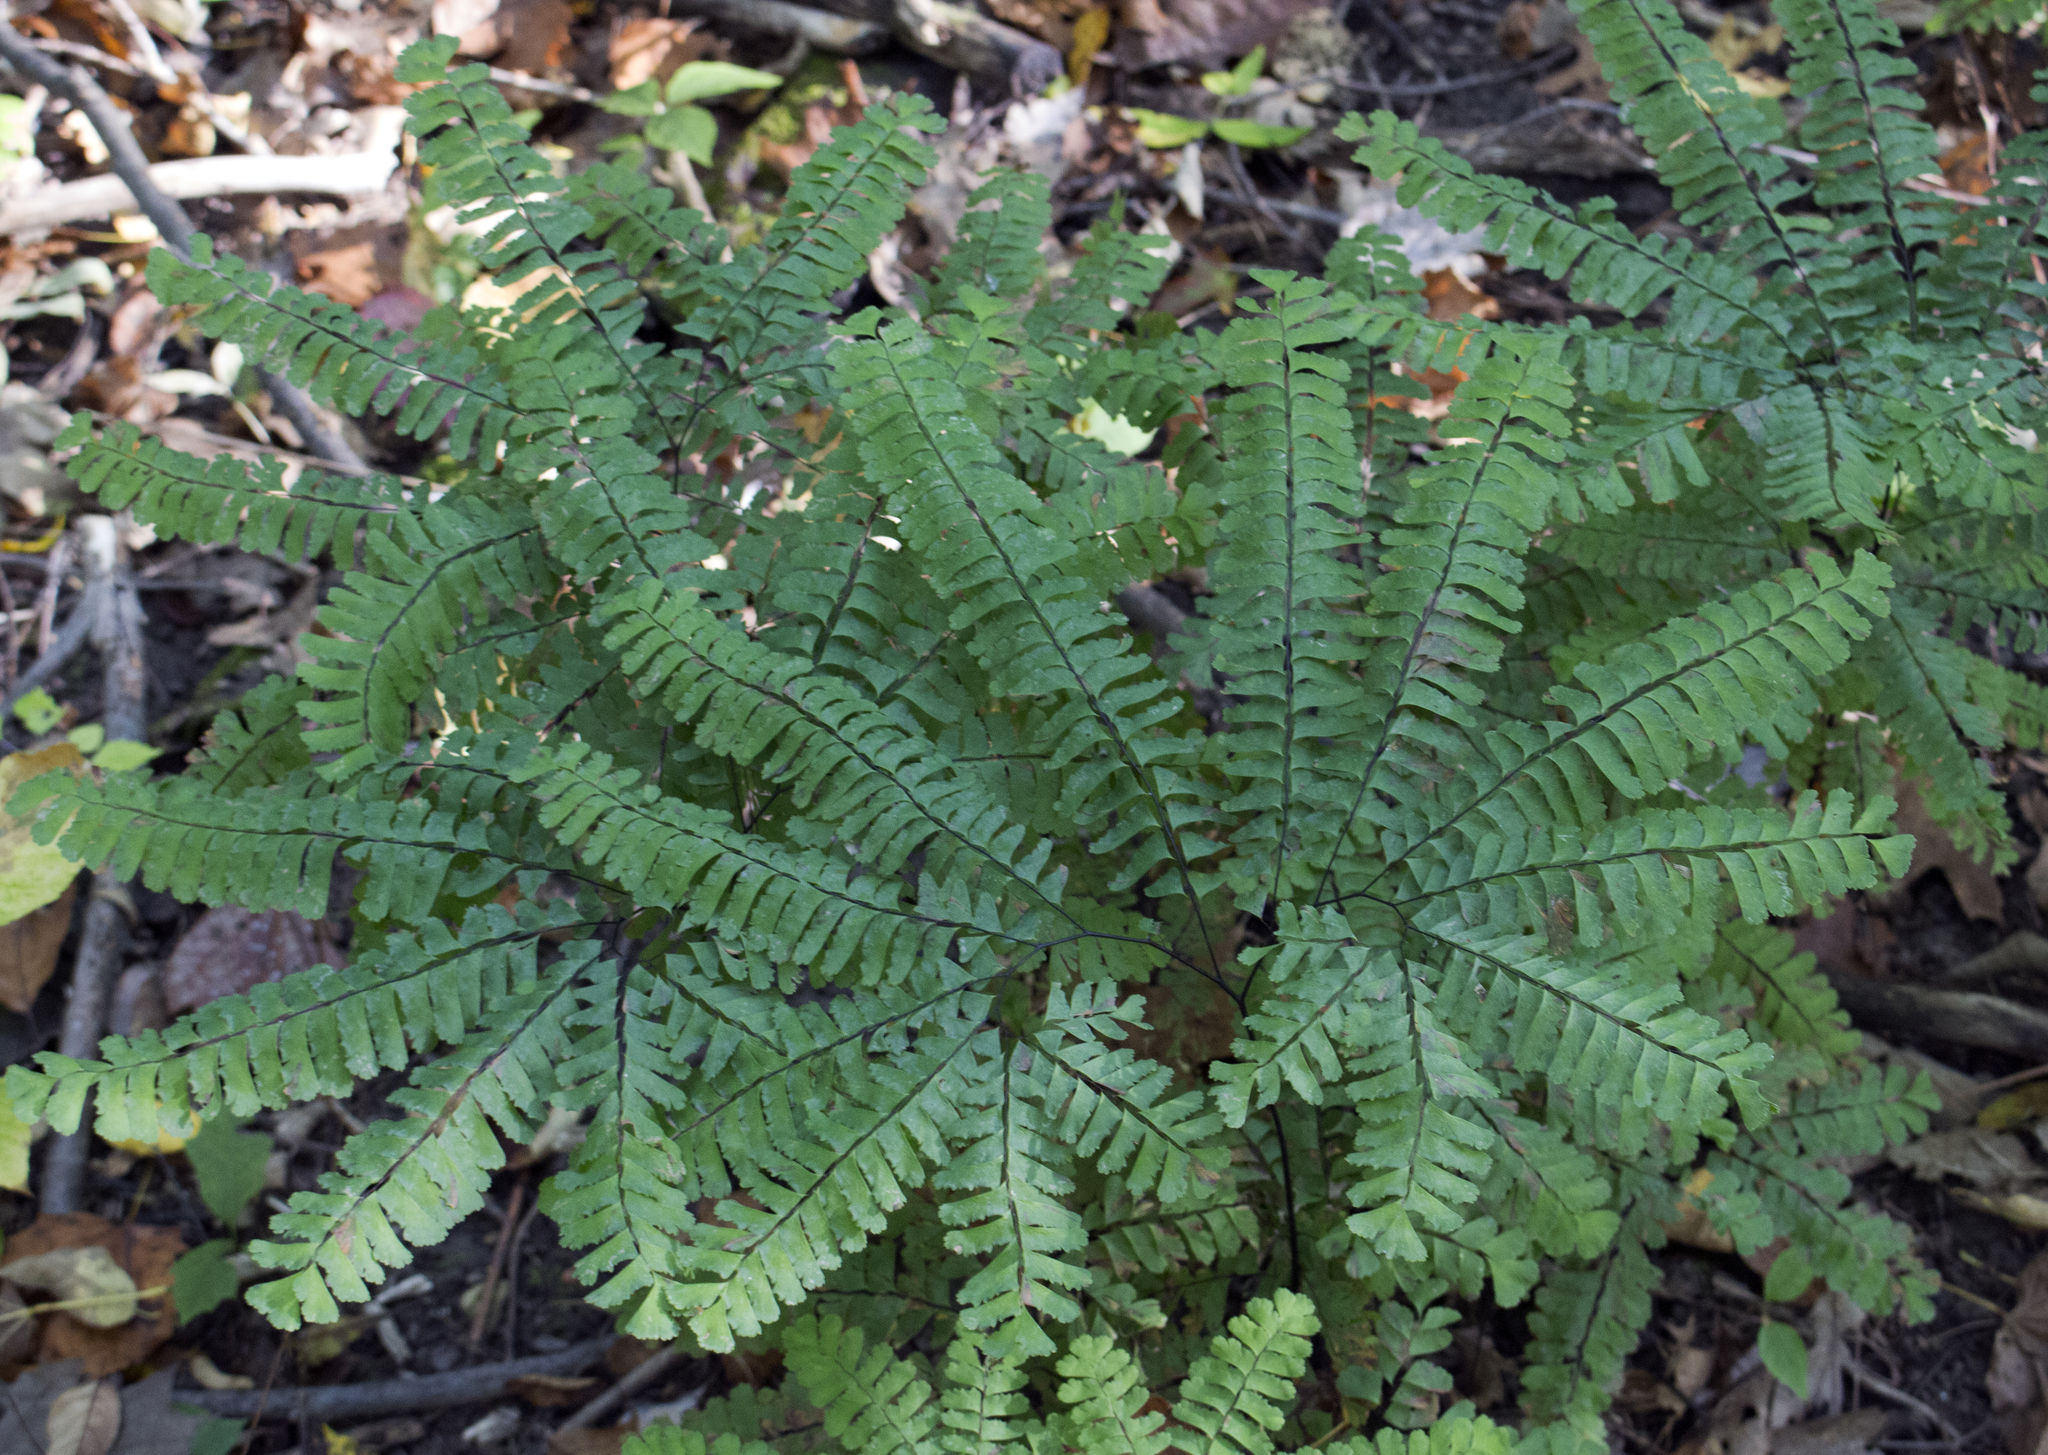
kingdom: Plantae
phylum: Tracheophyta
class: Polypodiopsida
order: Polypodiales
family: Pteridaceae
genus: Adiantum
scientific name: Adiantum pedatum
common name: Five-finger fern
